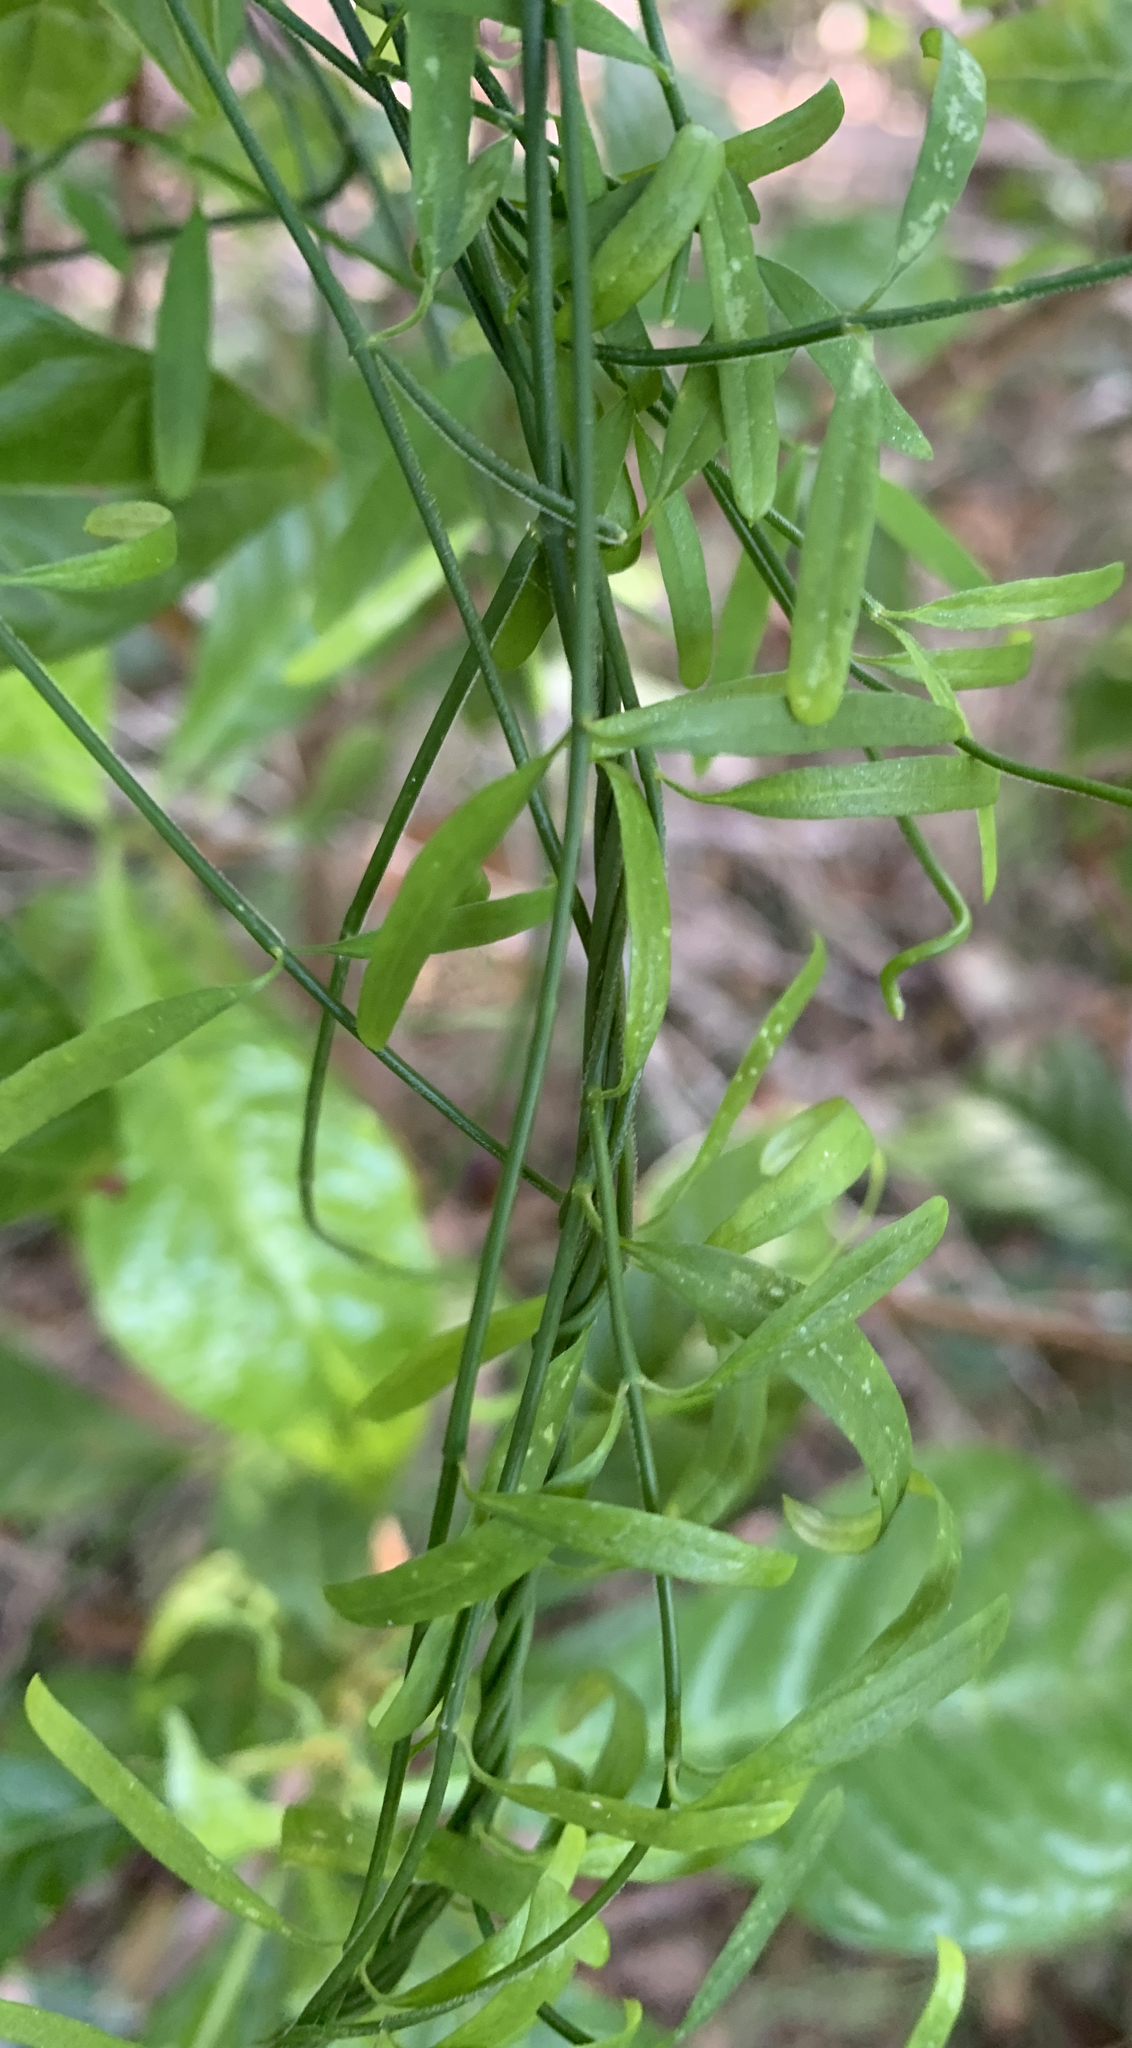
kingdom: Plantae
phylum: Tracheophyta
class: Magnoliopsida
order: Gentianales
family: Apocynaceae
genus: Orthosia
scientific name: Orthosia scoparia
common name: Leafless swallow-wort
